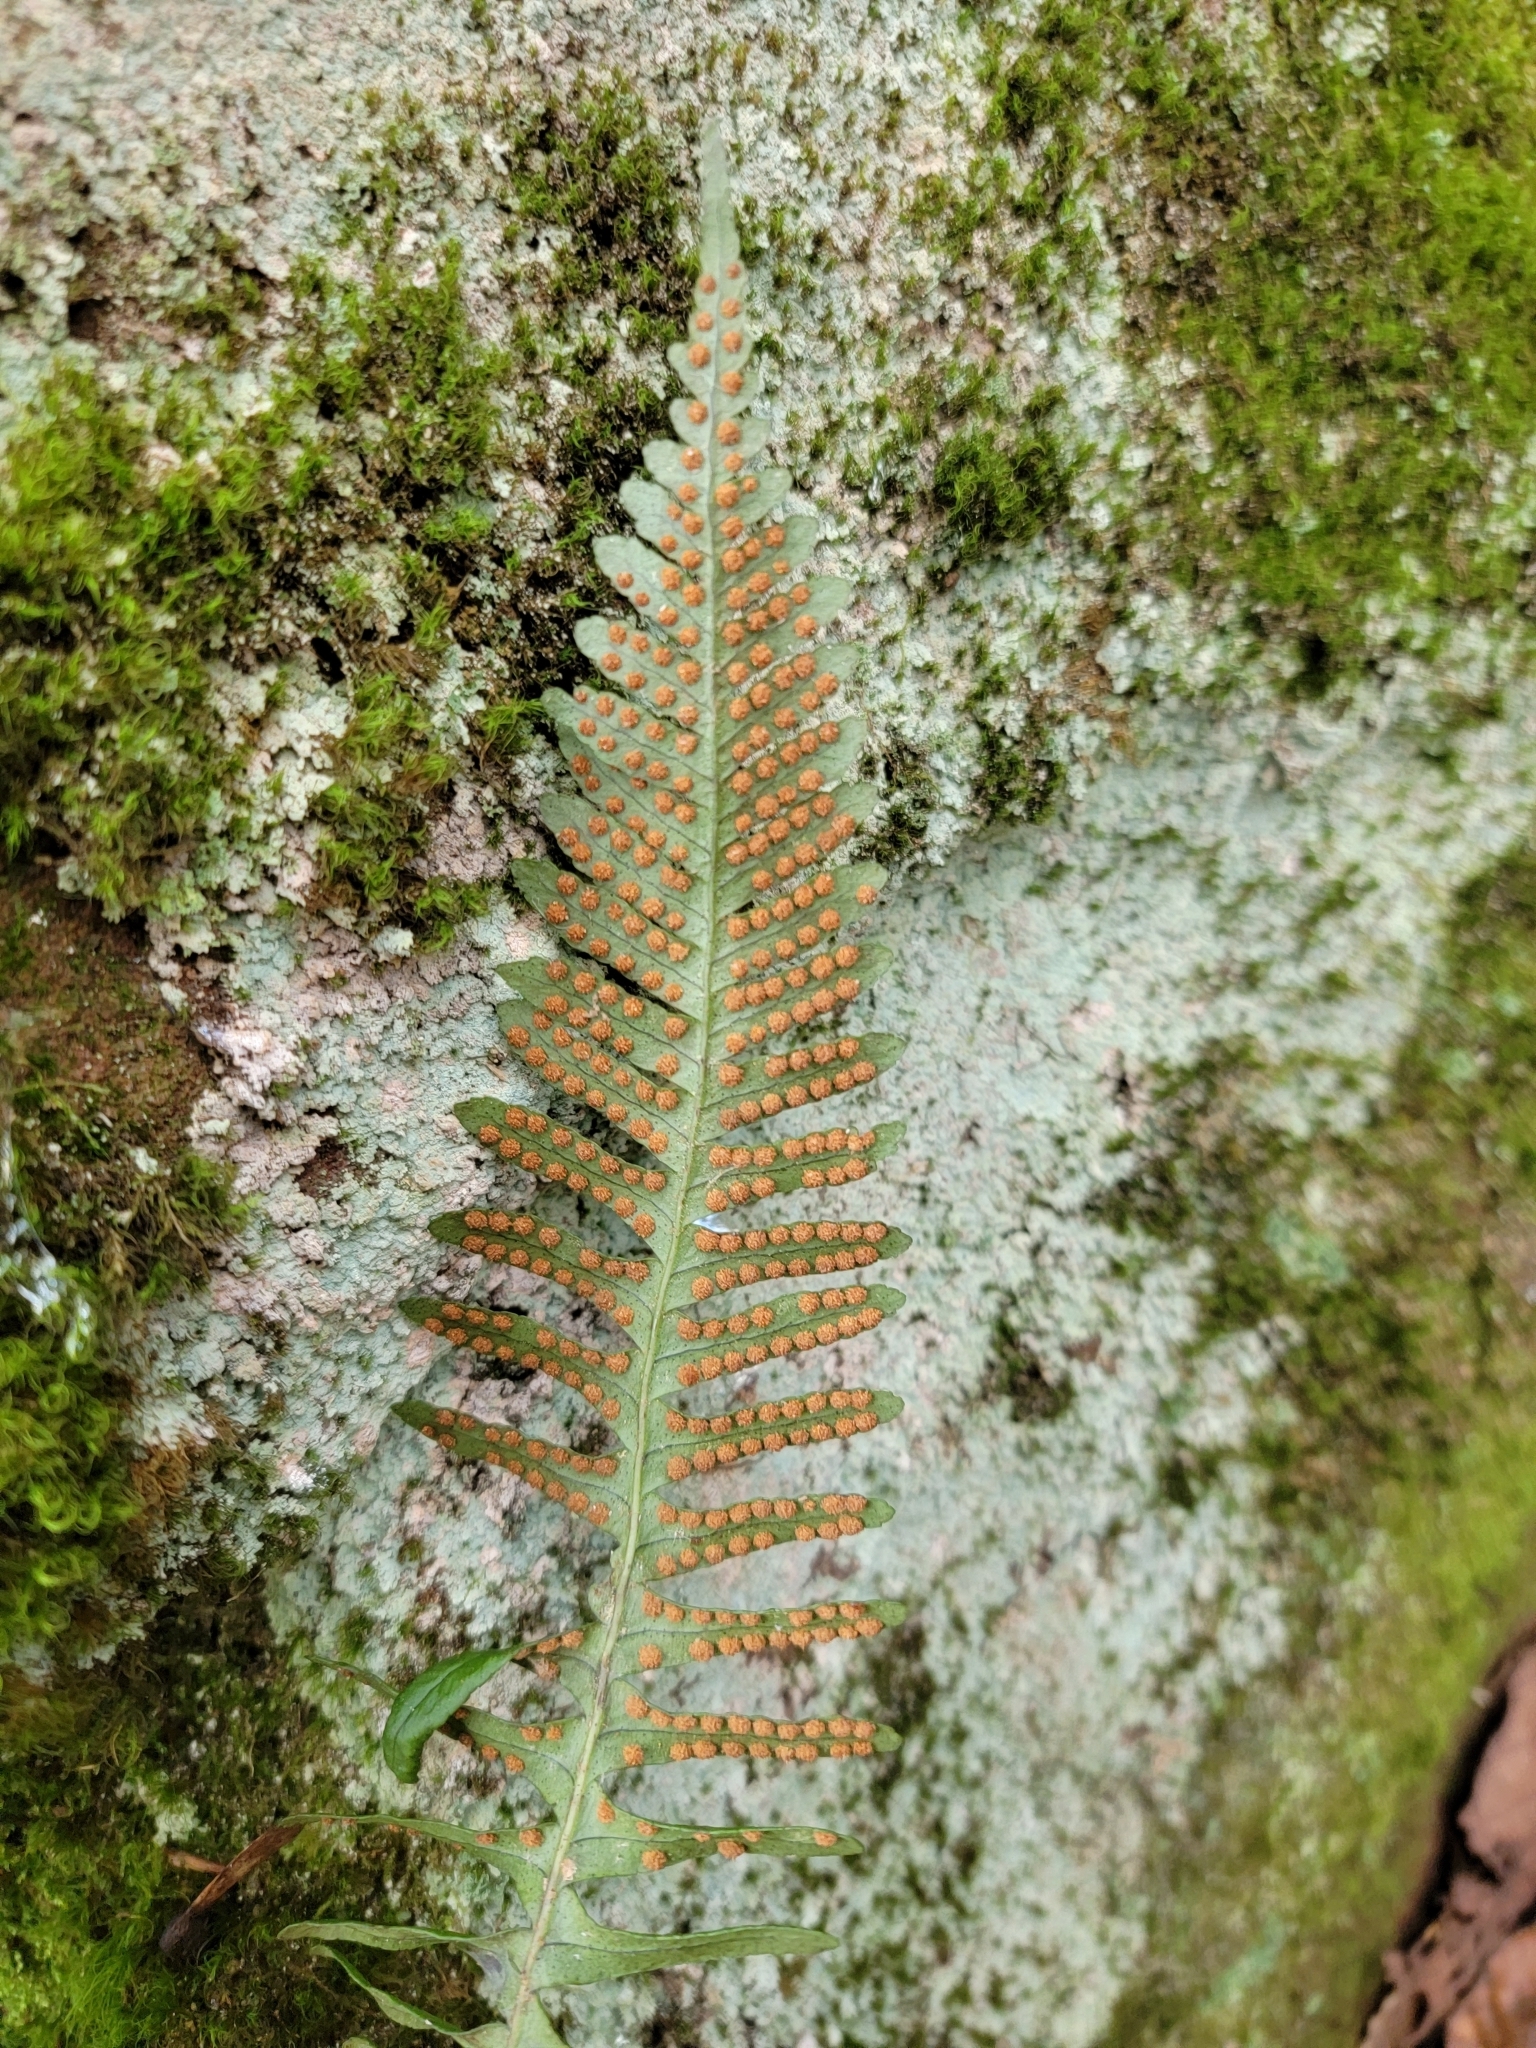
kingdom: Plantae
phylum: Tracheophyta
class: Polypodiopsida
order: Polypodiales
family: Polypodiaceae
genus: Polypodium
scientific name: Polypodium virginianum
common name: American wall fern
